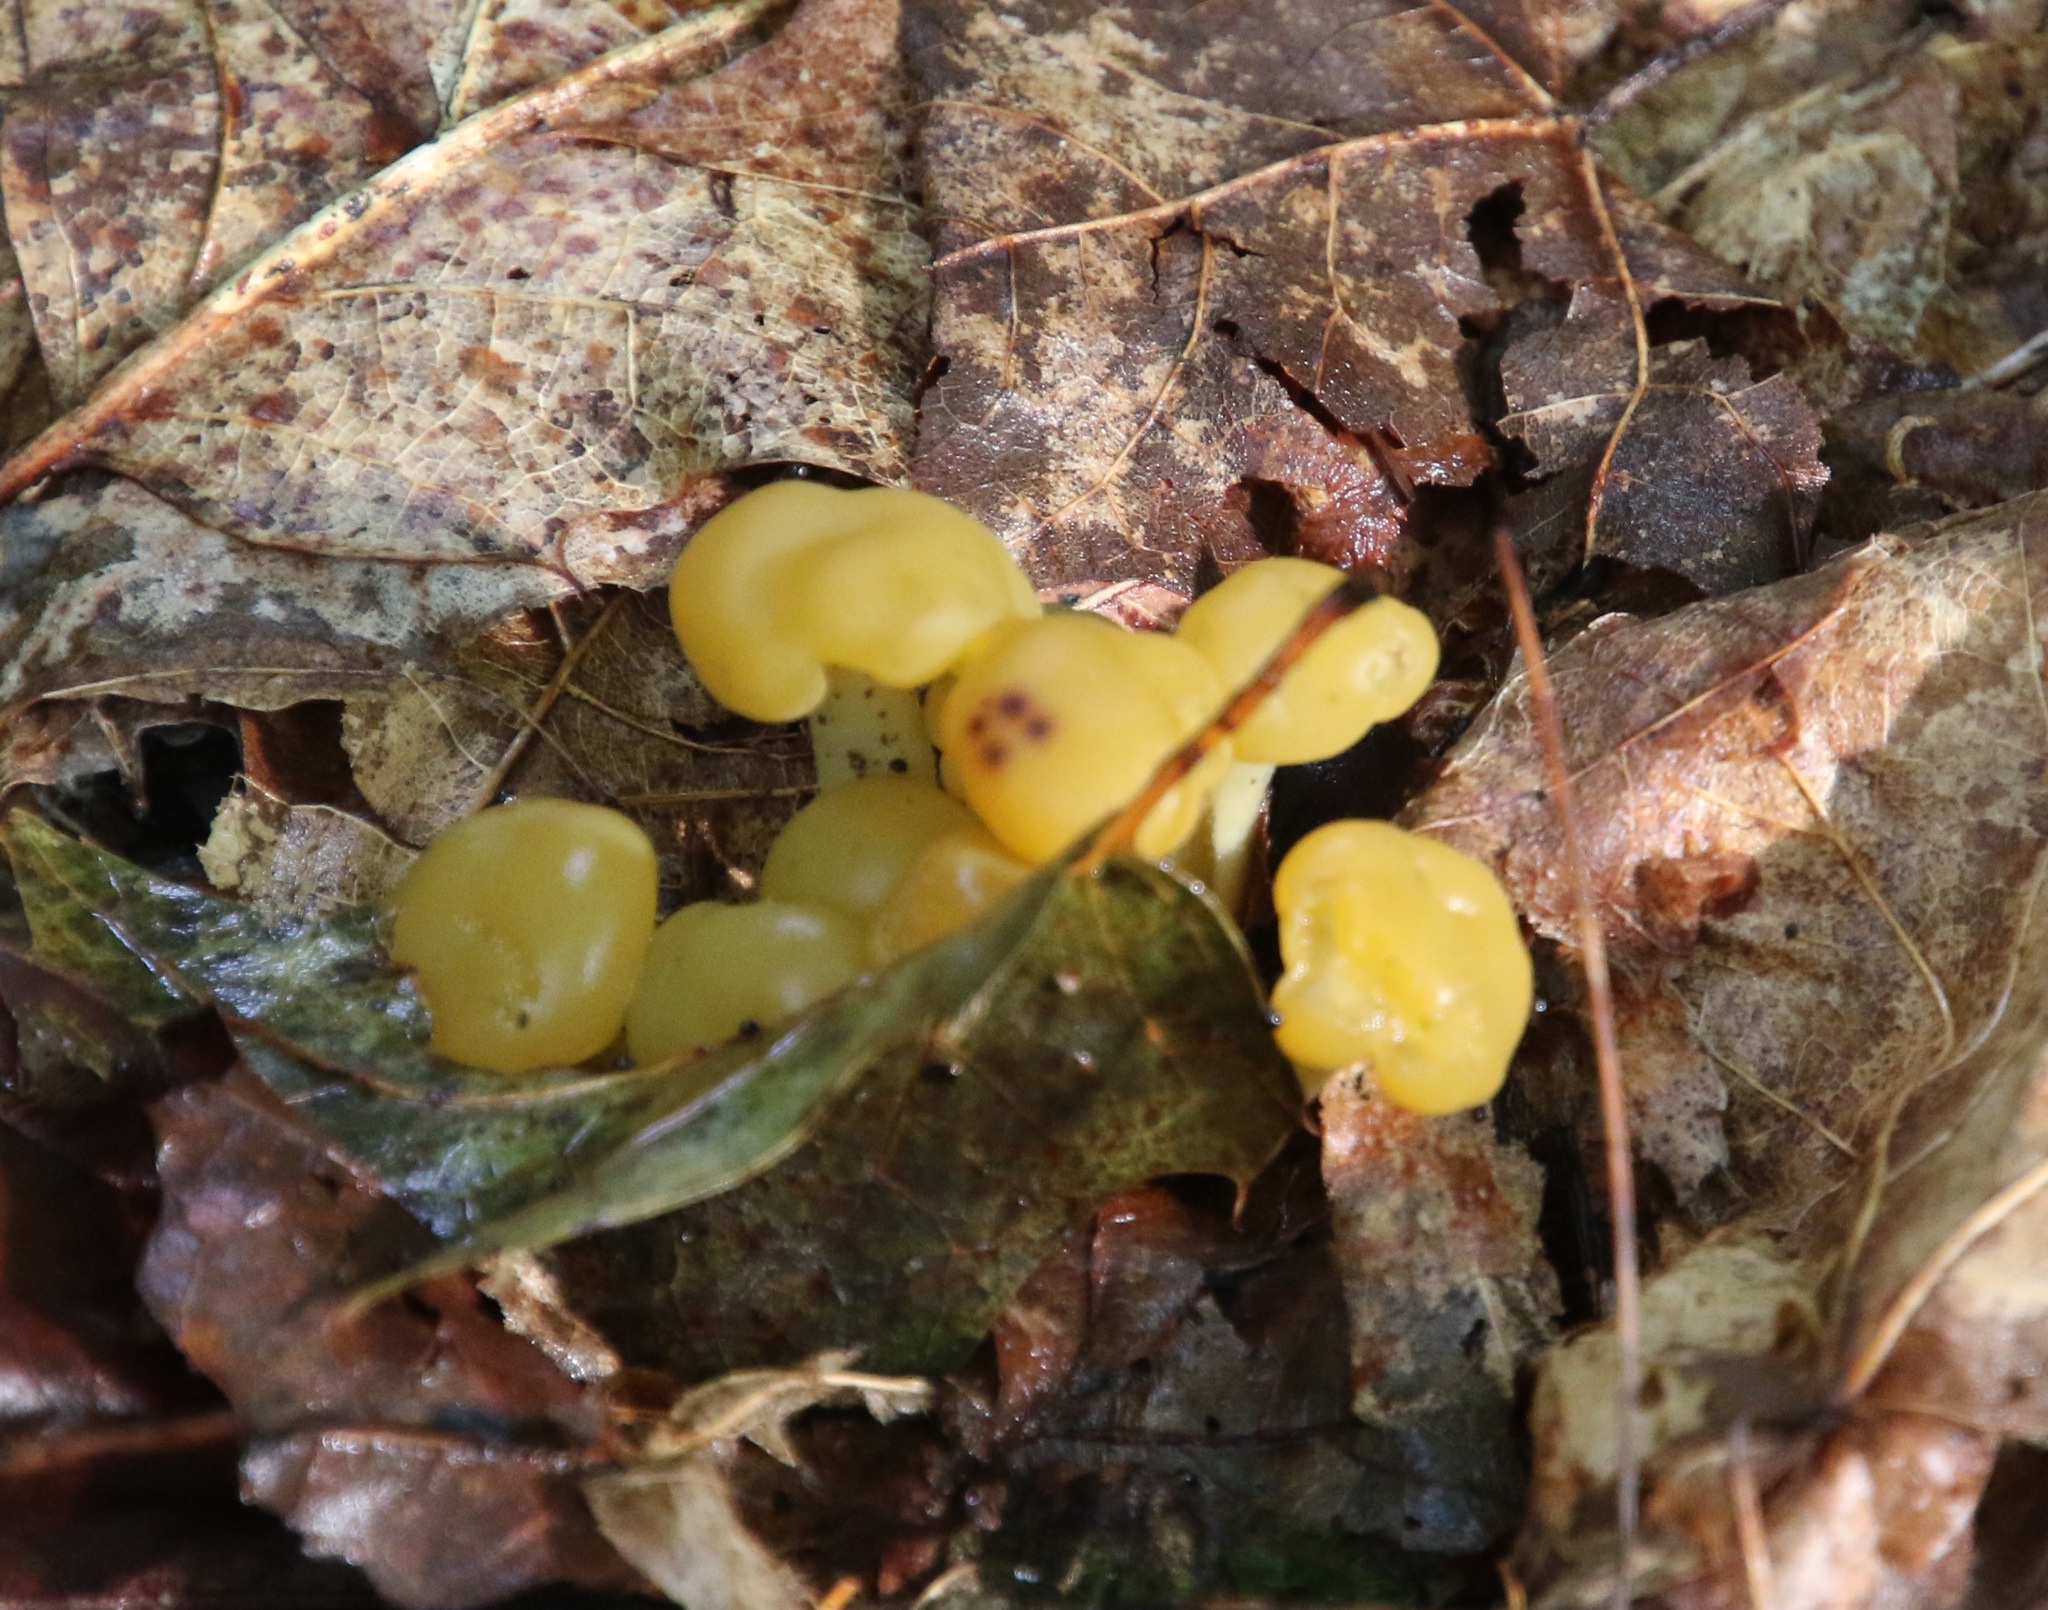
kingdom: Fungi
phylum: Ascomycota
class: Leotiomycetes
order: Leotiales
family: Leotiaceae
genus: Leotia
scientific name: Leotia lubrica
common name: Jellybaby
